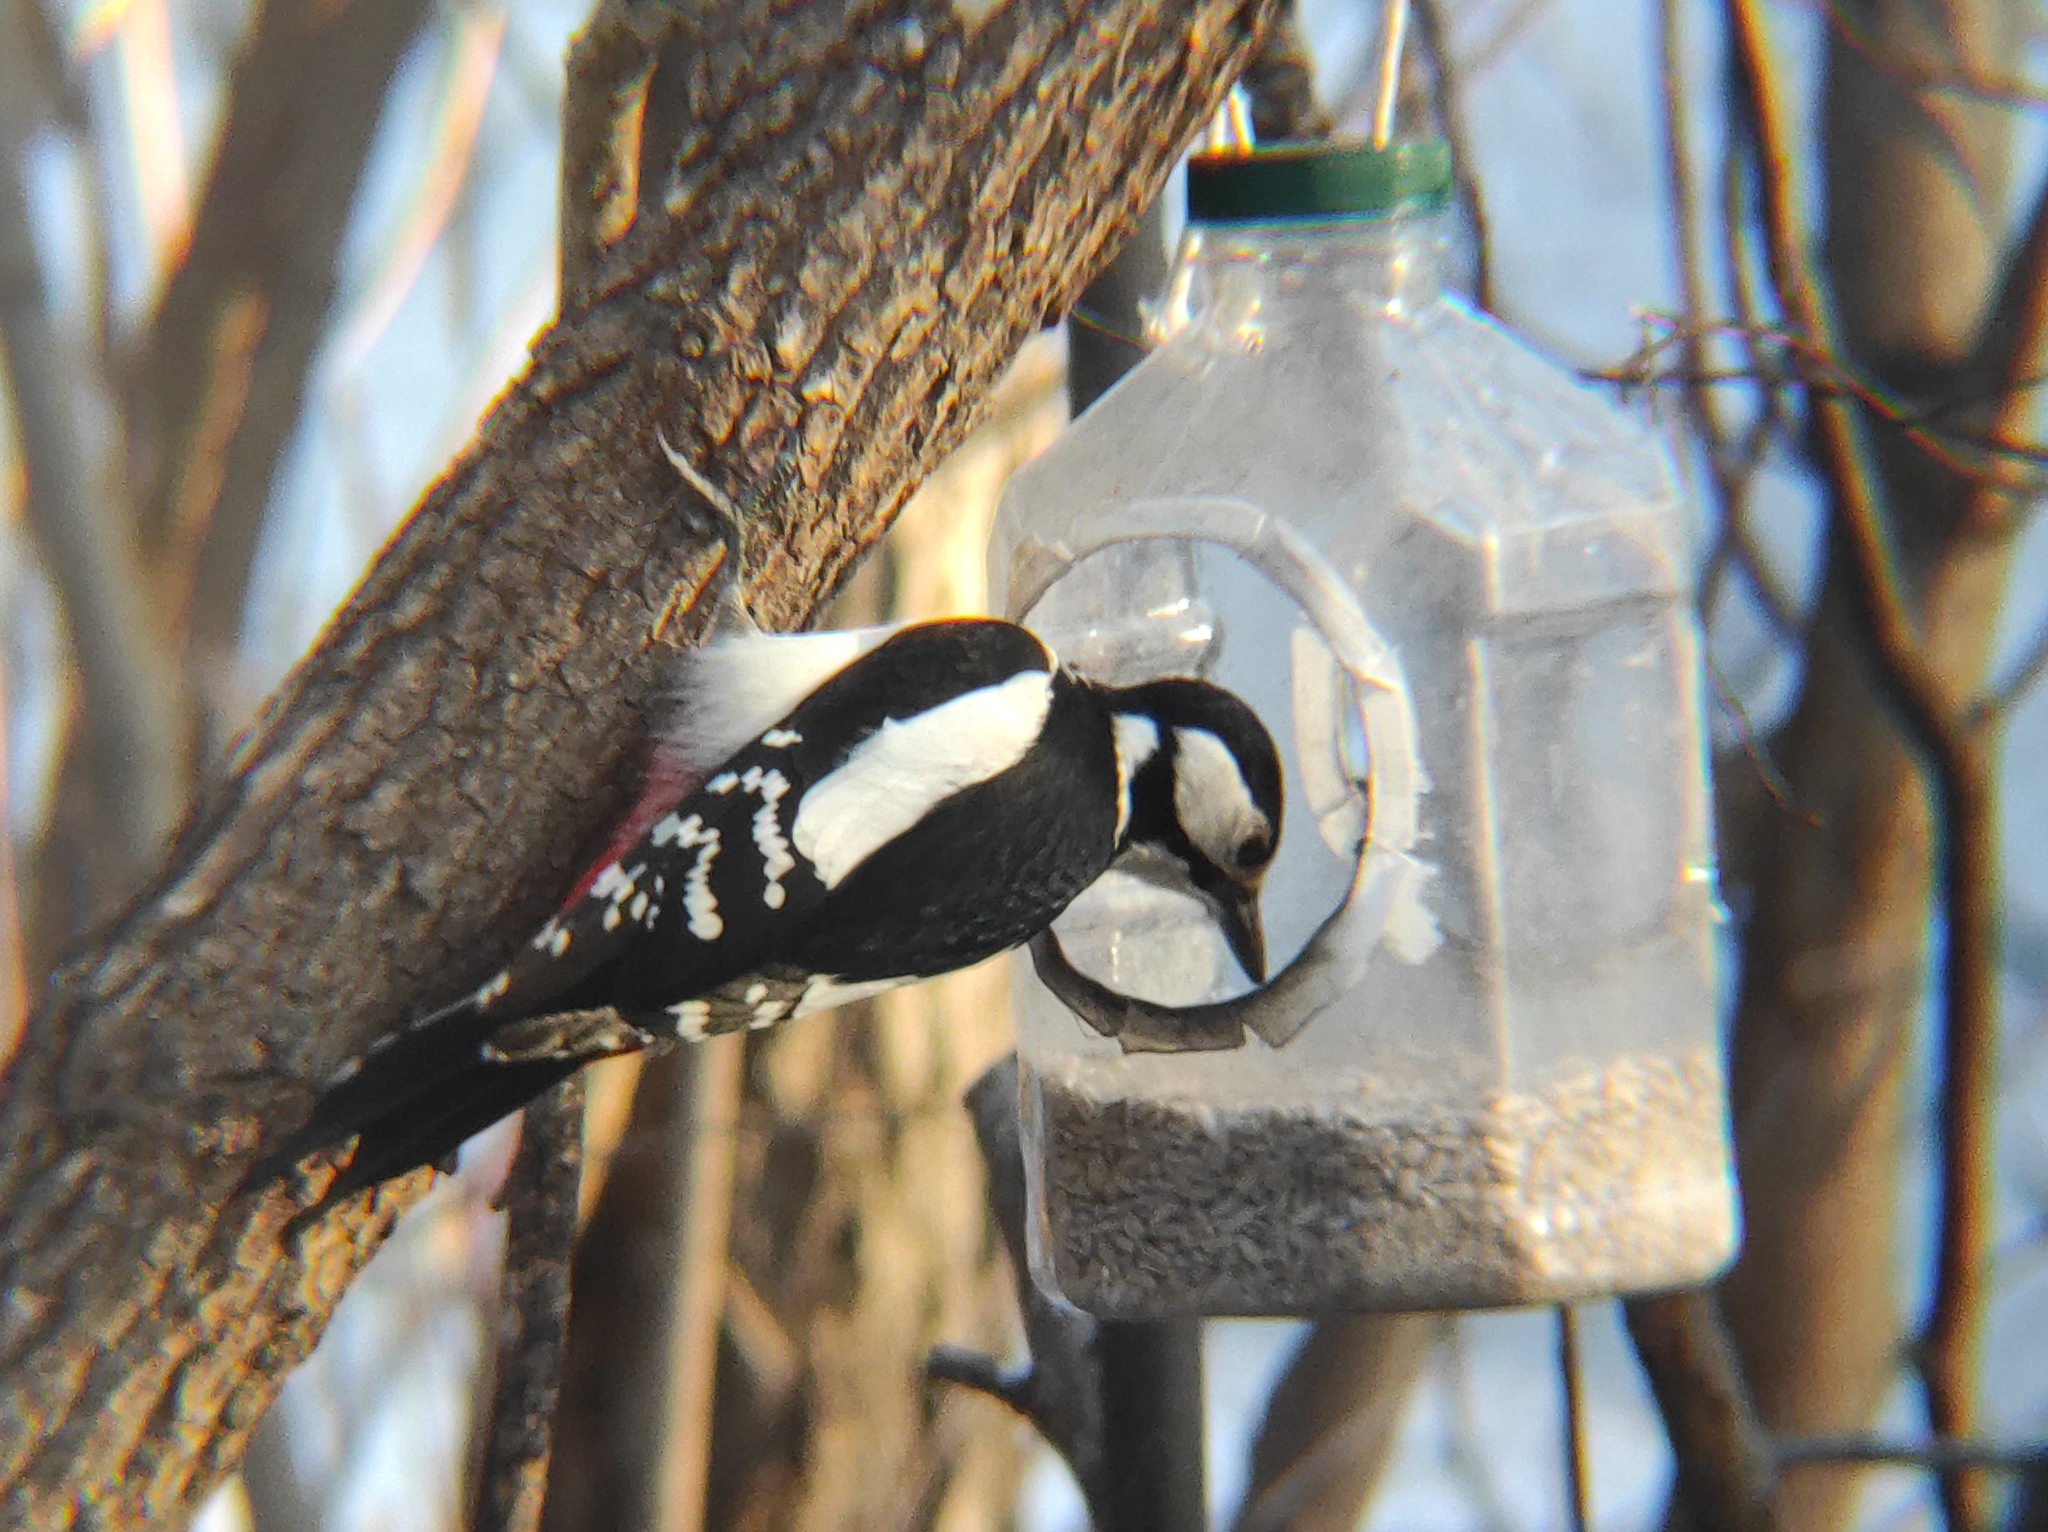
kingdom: Animalia
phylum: Chordata
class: Aves
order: Piciformes
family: Picidae
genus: Dendrocopos
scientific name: Dendrocopos major
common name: Great spotted woodpecker
